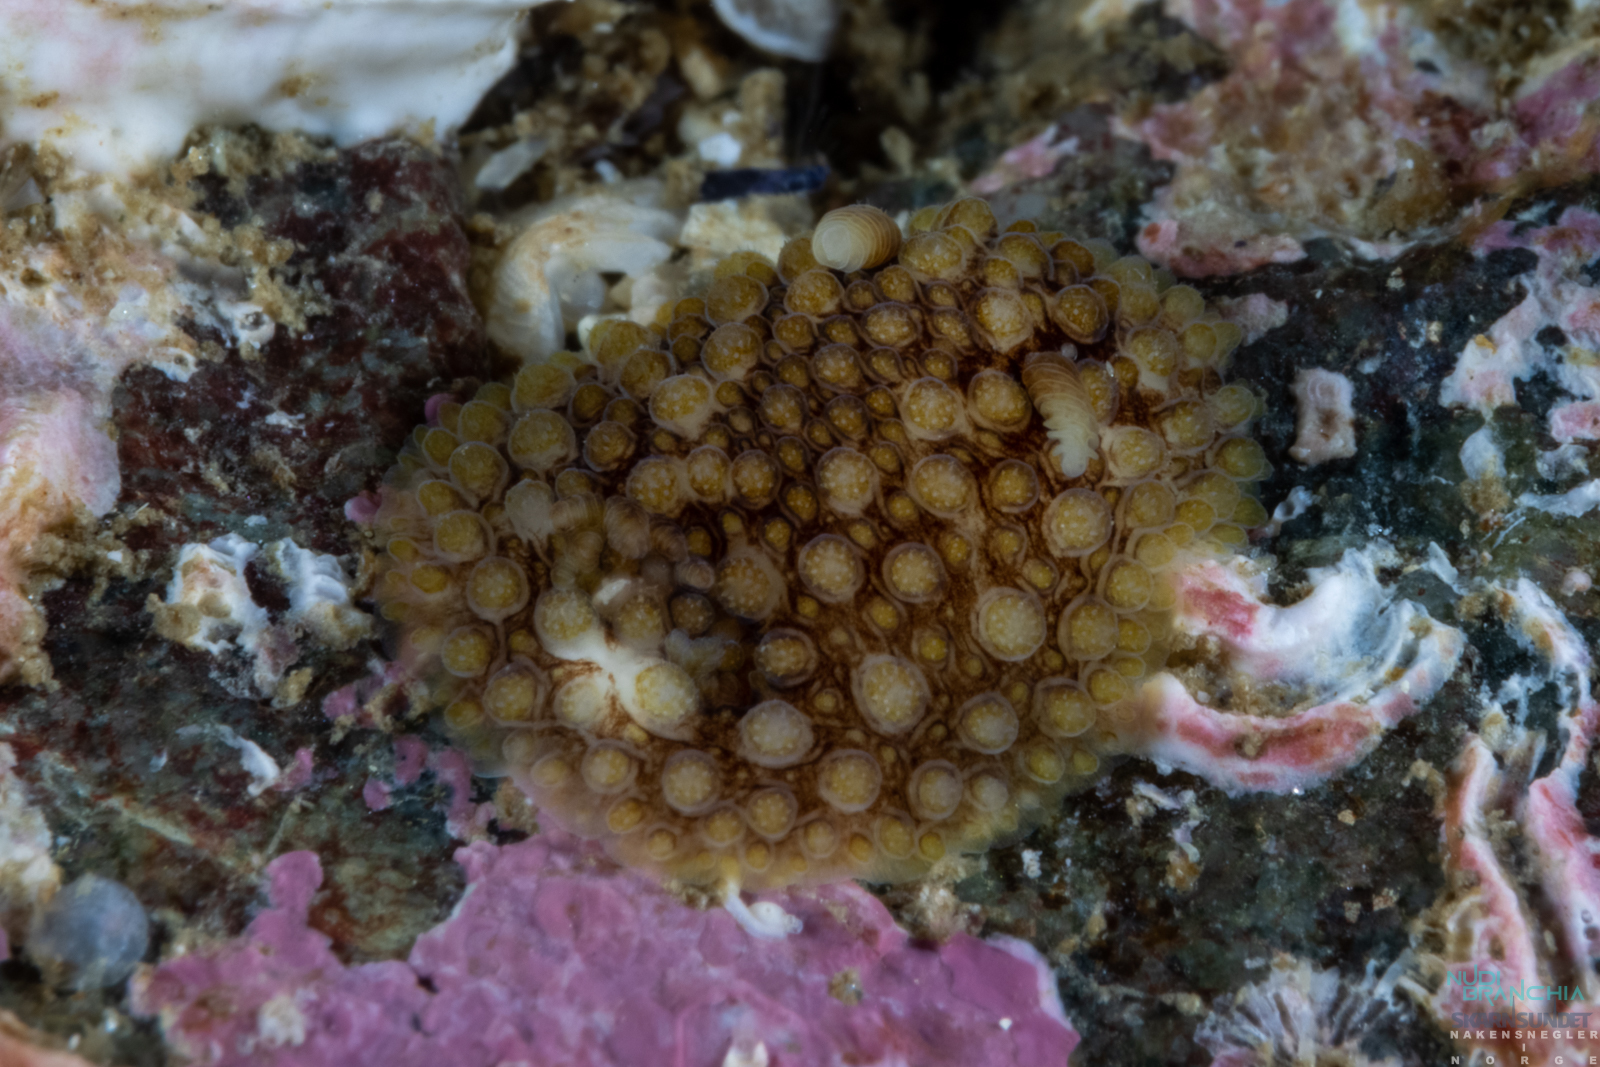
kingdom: Animalia
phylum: Mollusca
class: Gastropoda
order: Nudibranchia
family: Onchidorididae
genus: Onchidoris
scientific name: Onchidoris bilamellata
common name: Barnacle-eating onchidoris
